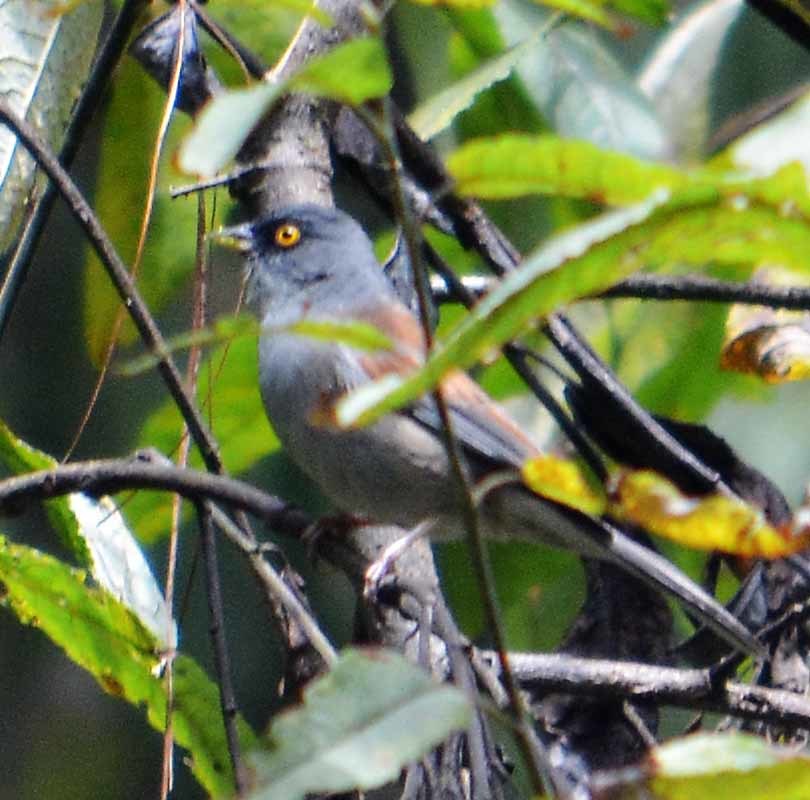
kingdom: Animalia
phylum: Chordata
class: Aves
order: Passeriformes
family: Passerellidae
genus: Junco
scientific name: Junco phaeonotus
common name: Yellow-eyed junco
